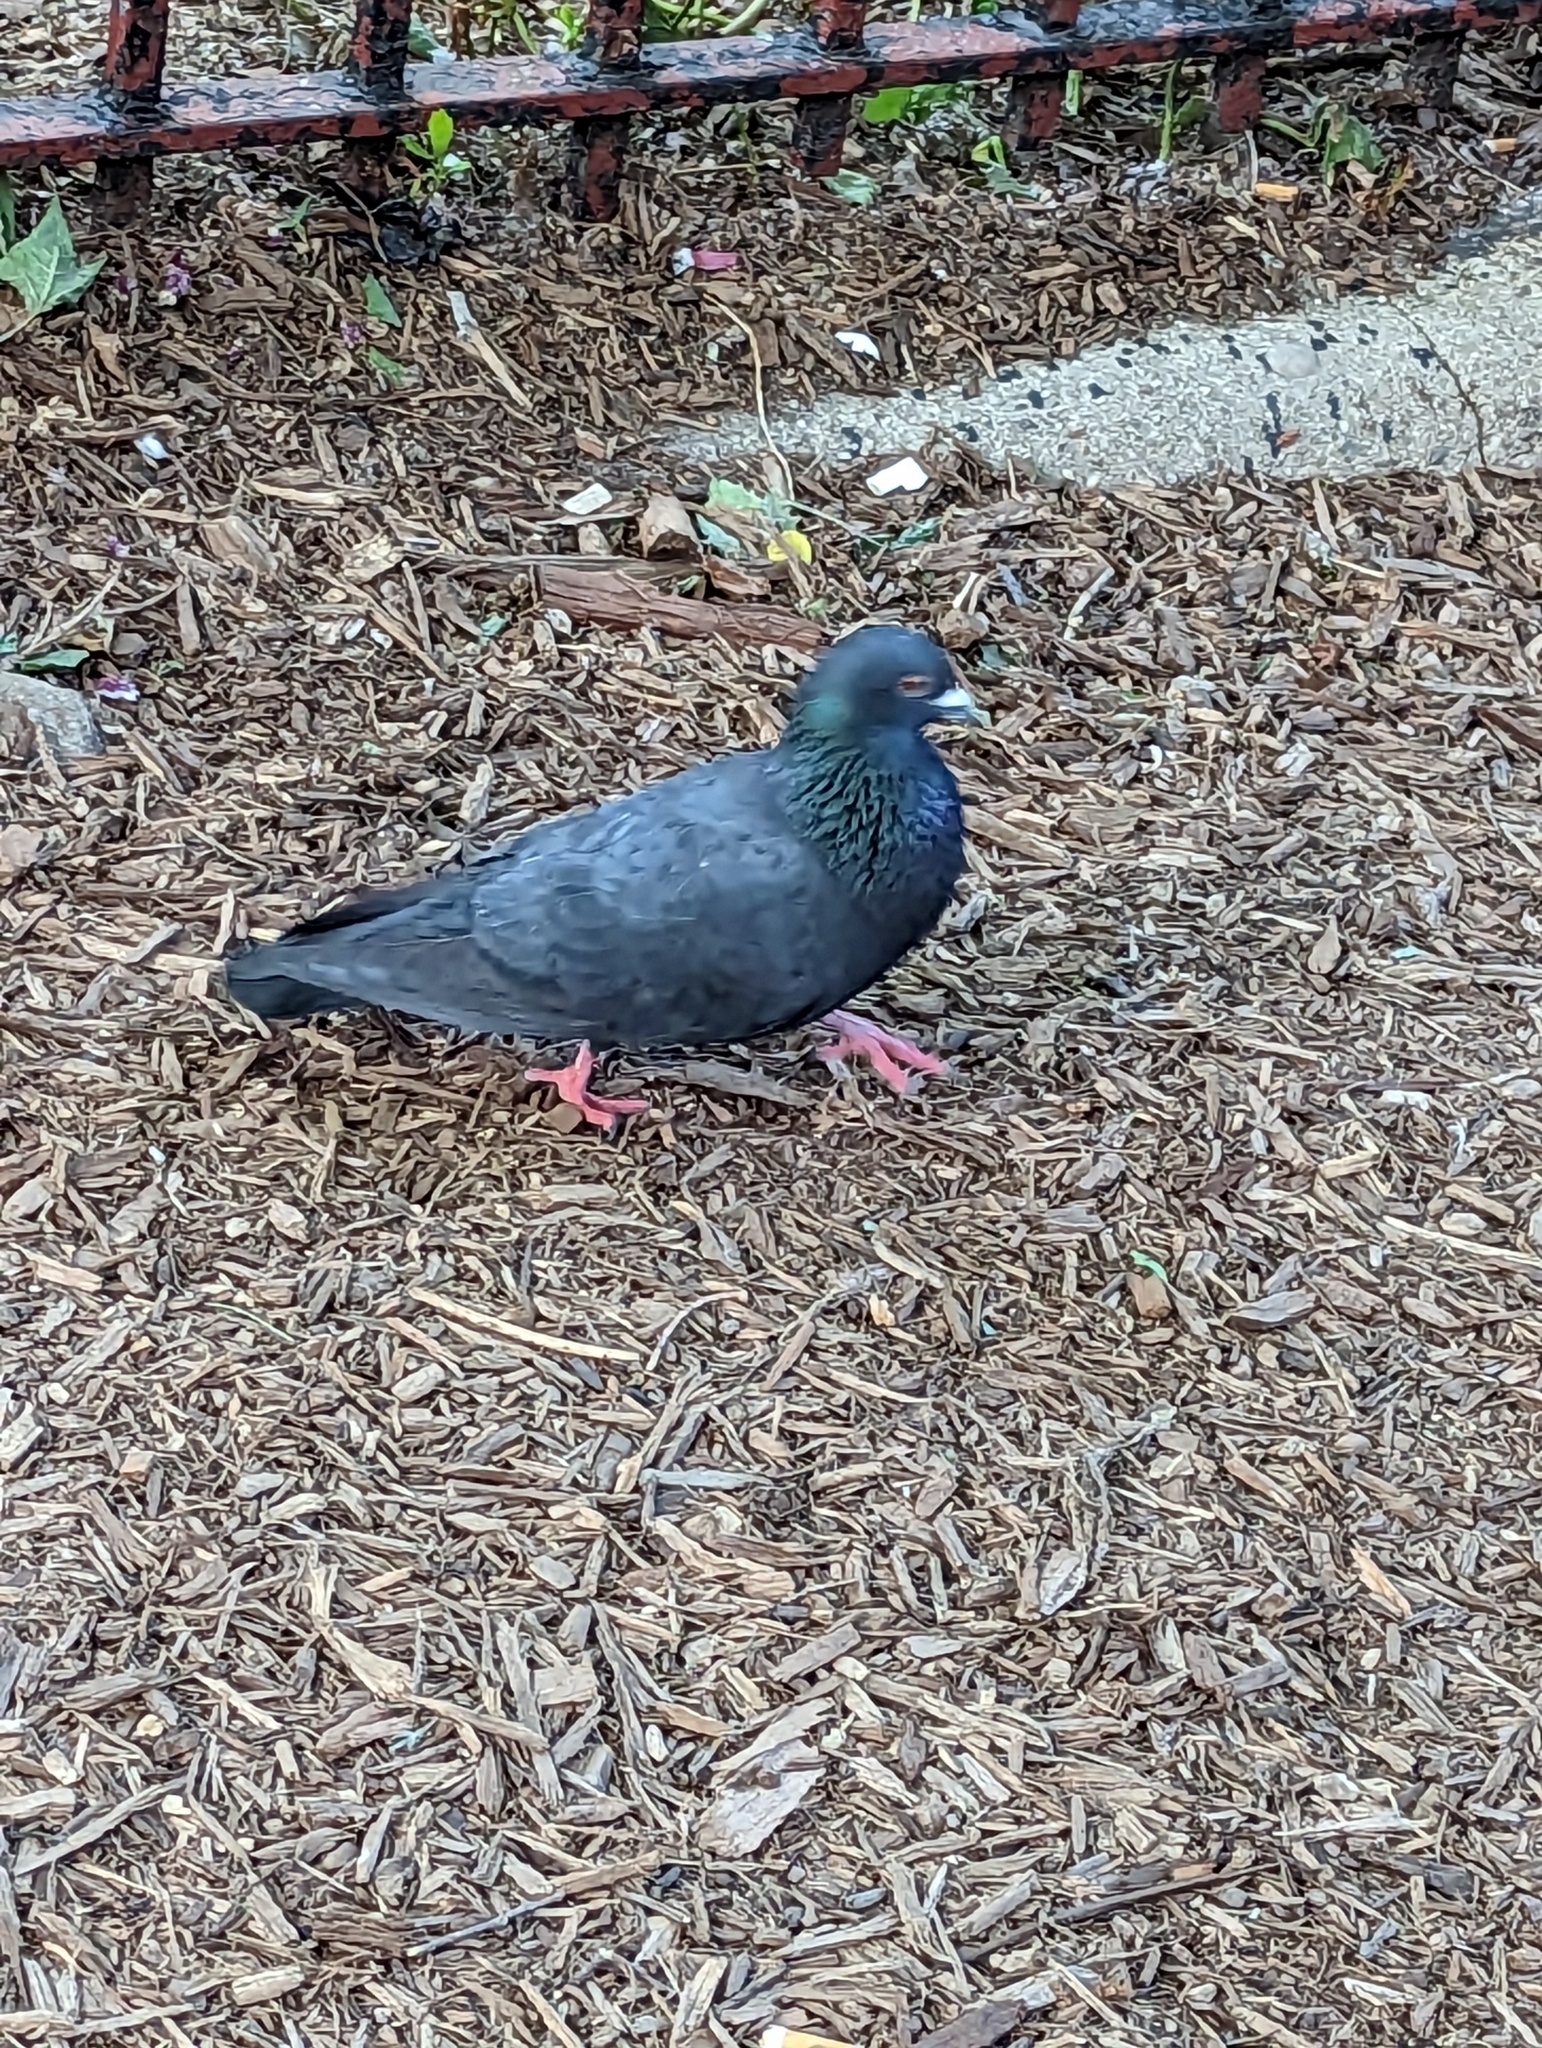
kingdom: Animalia
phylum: Chordata
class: Aves
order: Columbiformes
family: Columbidae
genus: Columba
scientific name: Columba livia
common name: Rock pigeon
